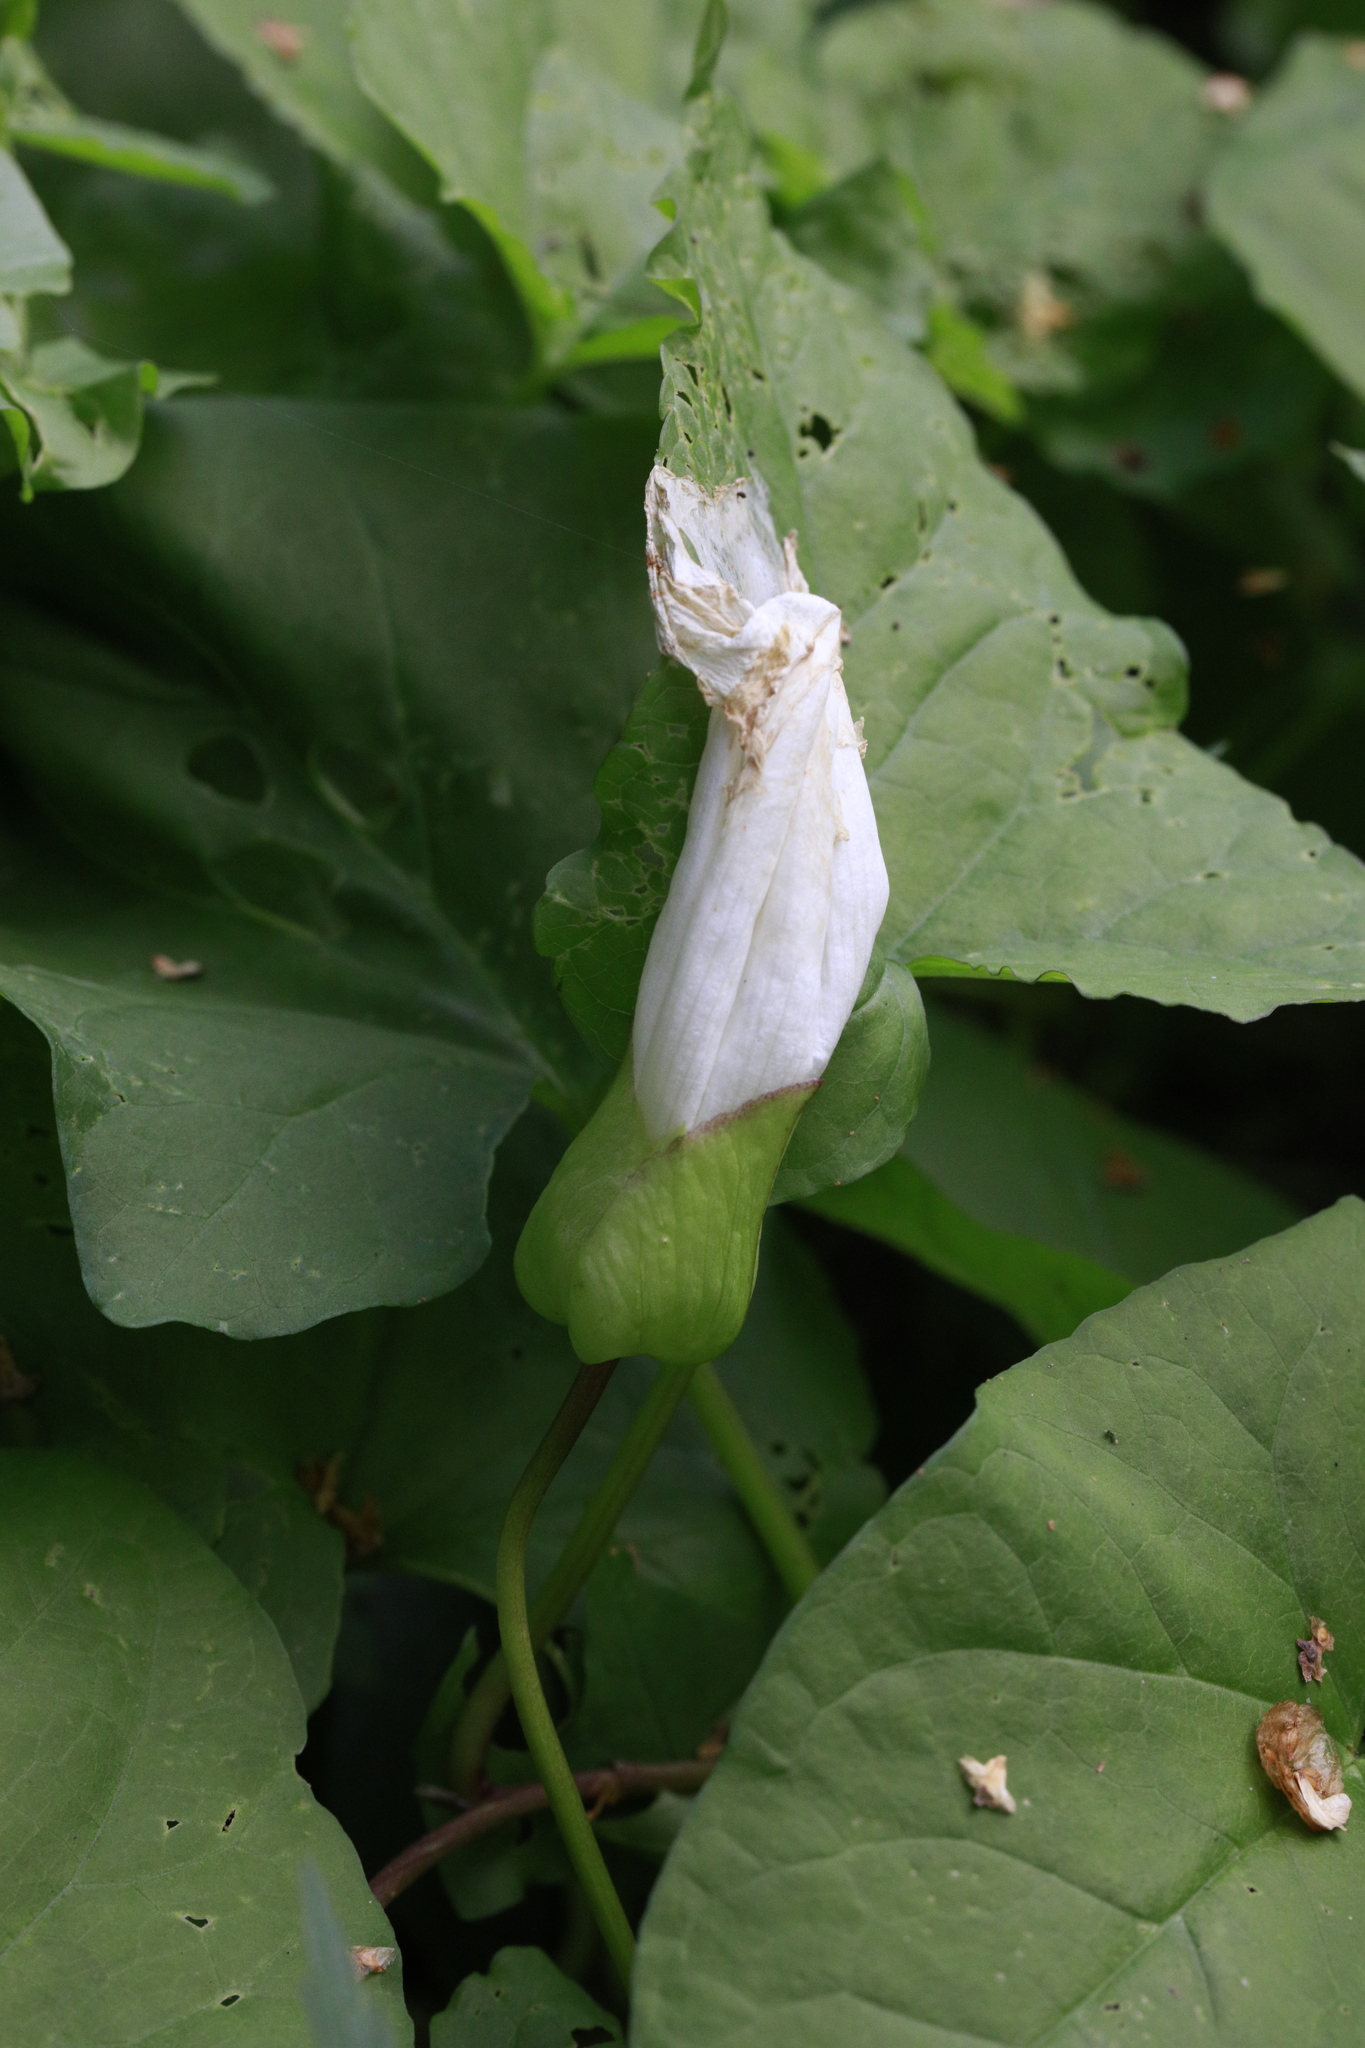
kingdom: Plantae
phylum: Tracheophyta
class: Magnoliopsida
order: Solanales
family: Convolvulaceae
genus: Calystegia
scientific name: Calystegia silvatica
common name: Large bindweed
